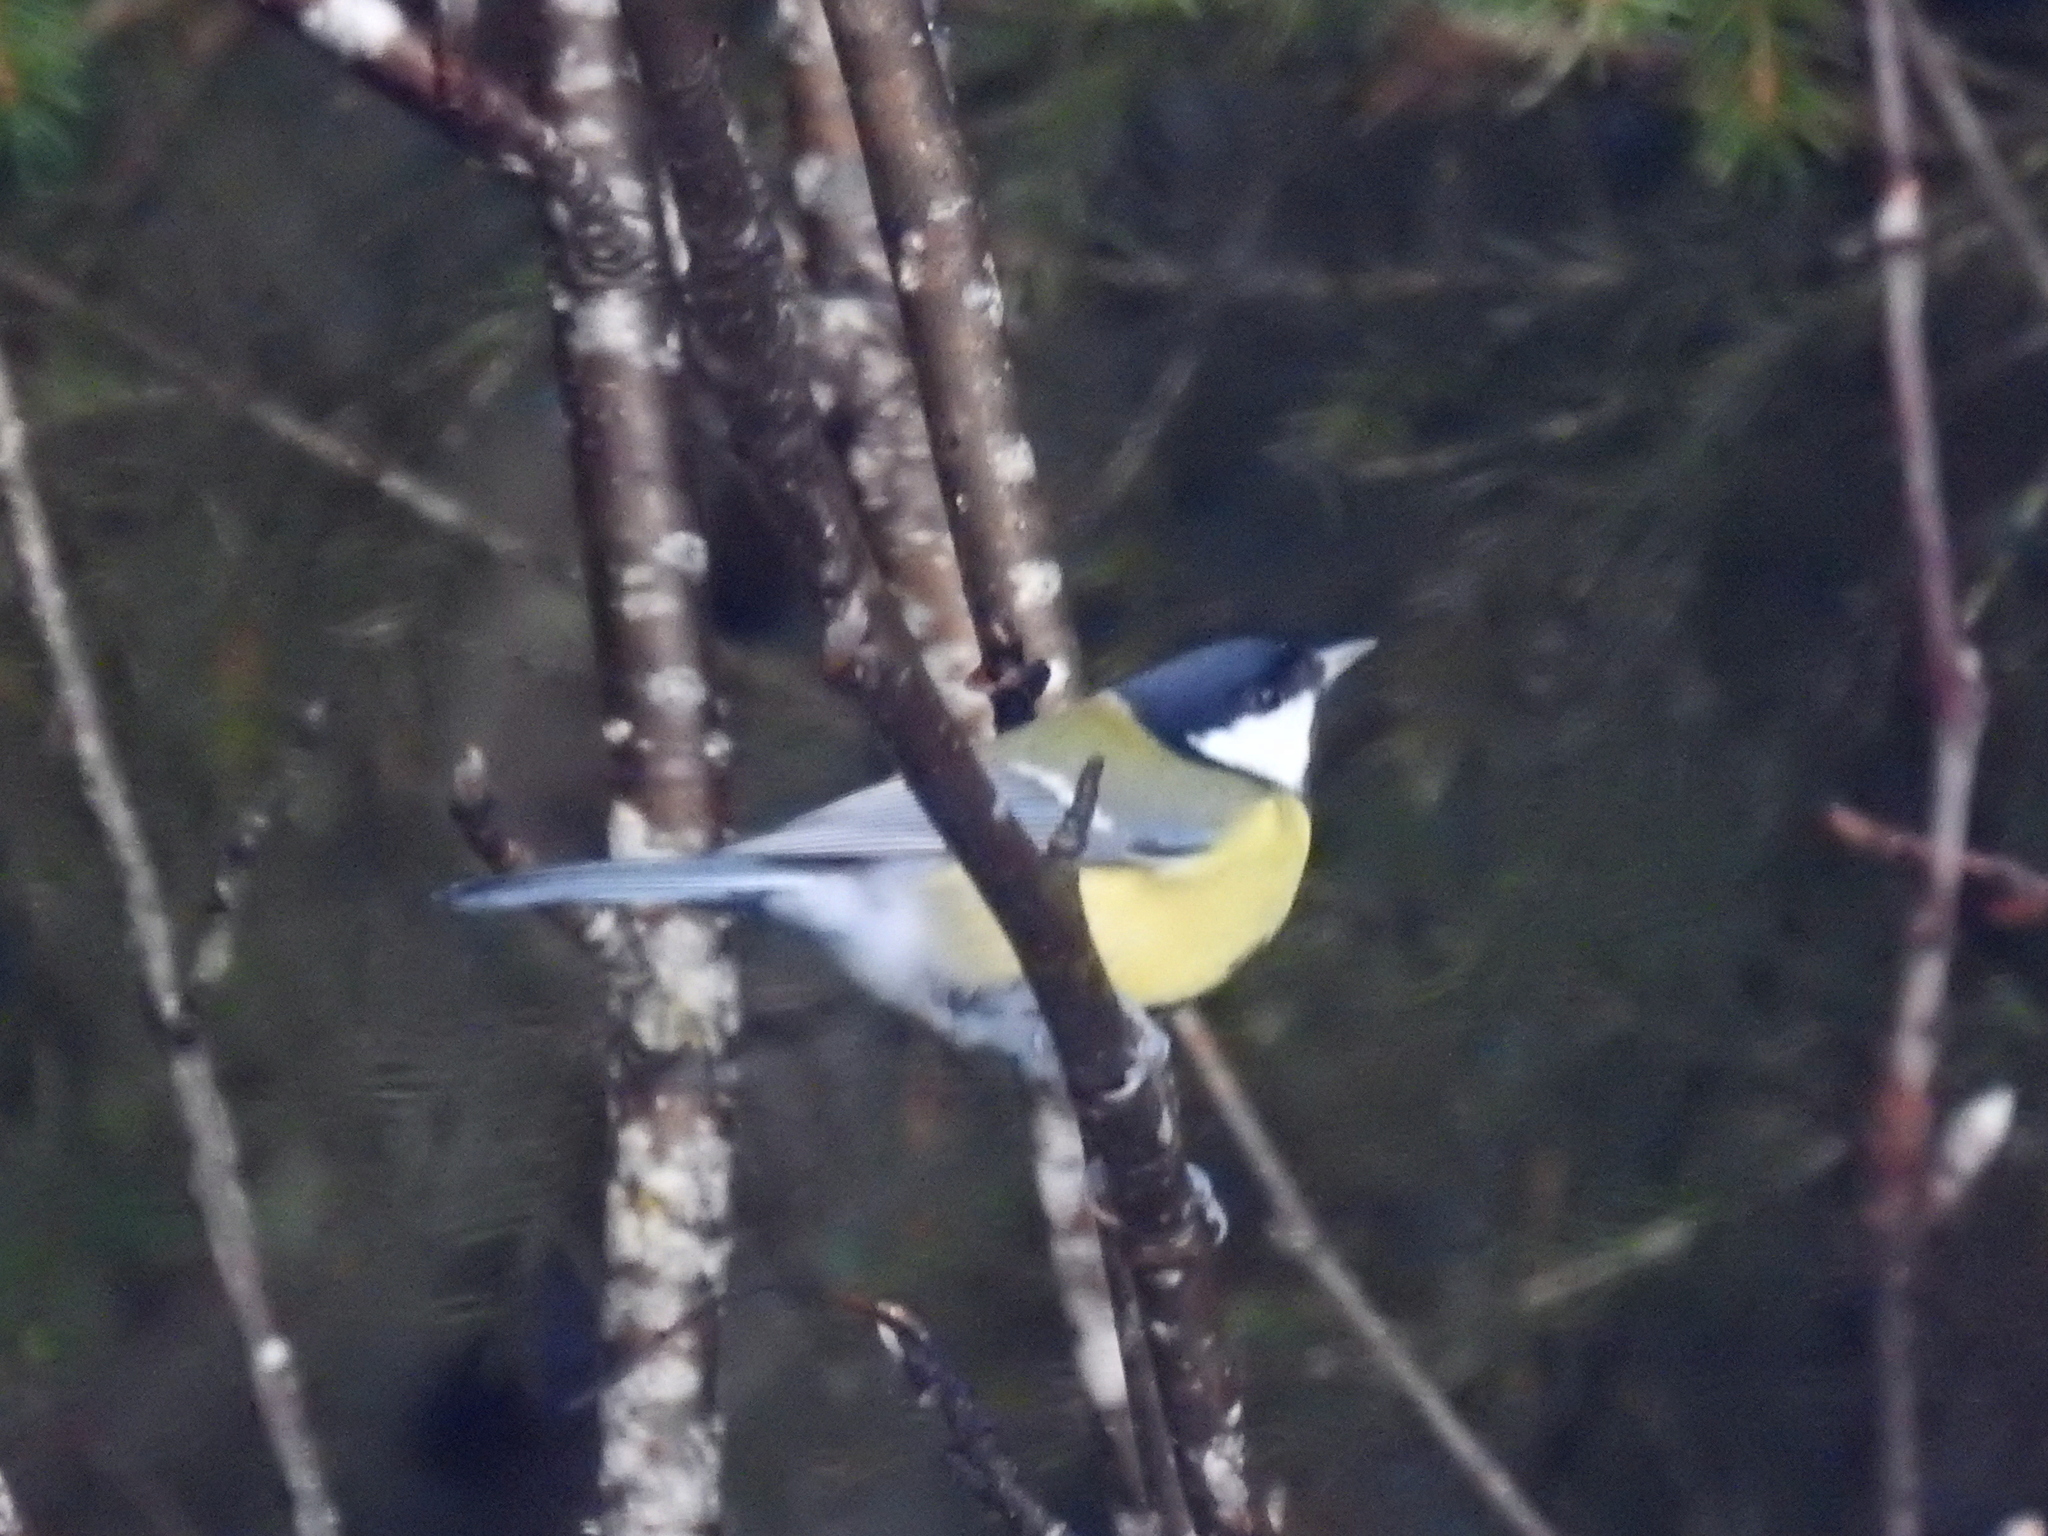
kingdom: Animalia
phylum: Chordata
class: Aves
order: Passeriformes
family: Paridae
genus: Parus
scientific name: Parus major
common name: Great tit
